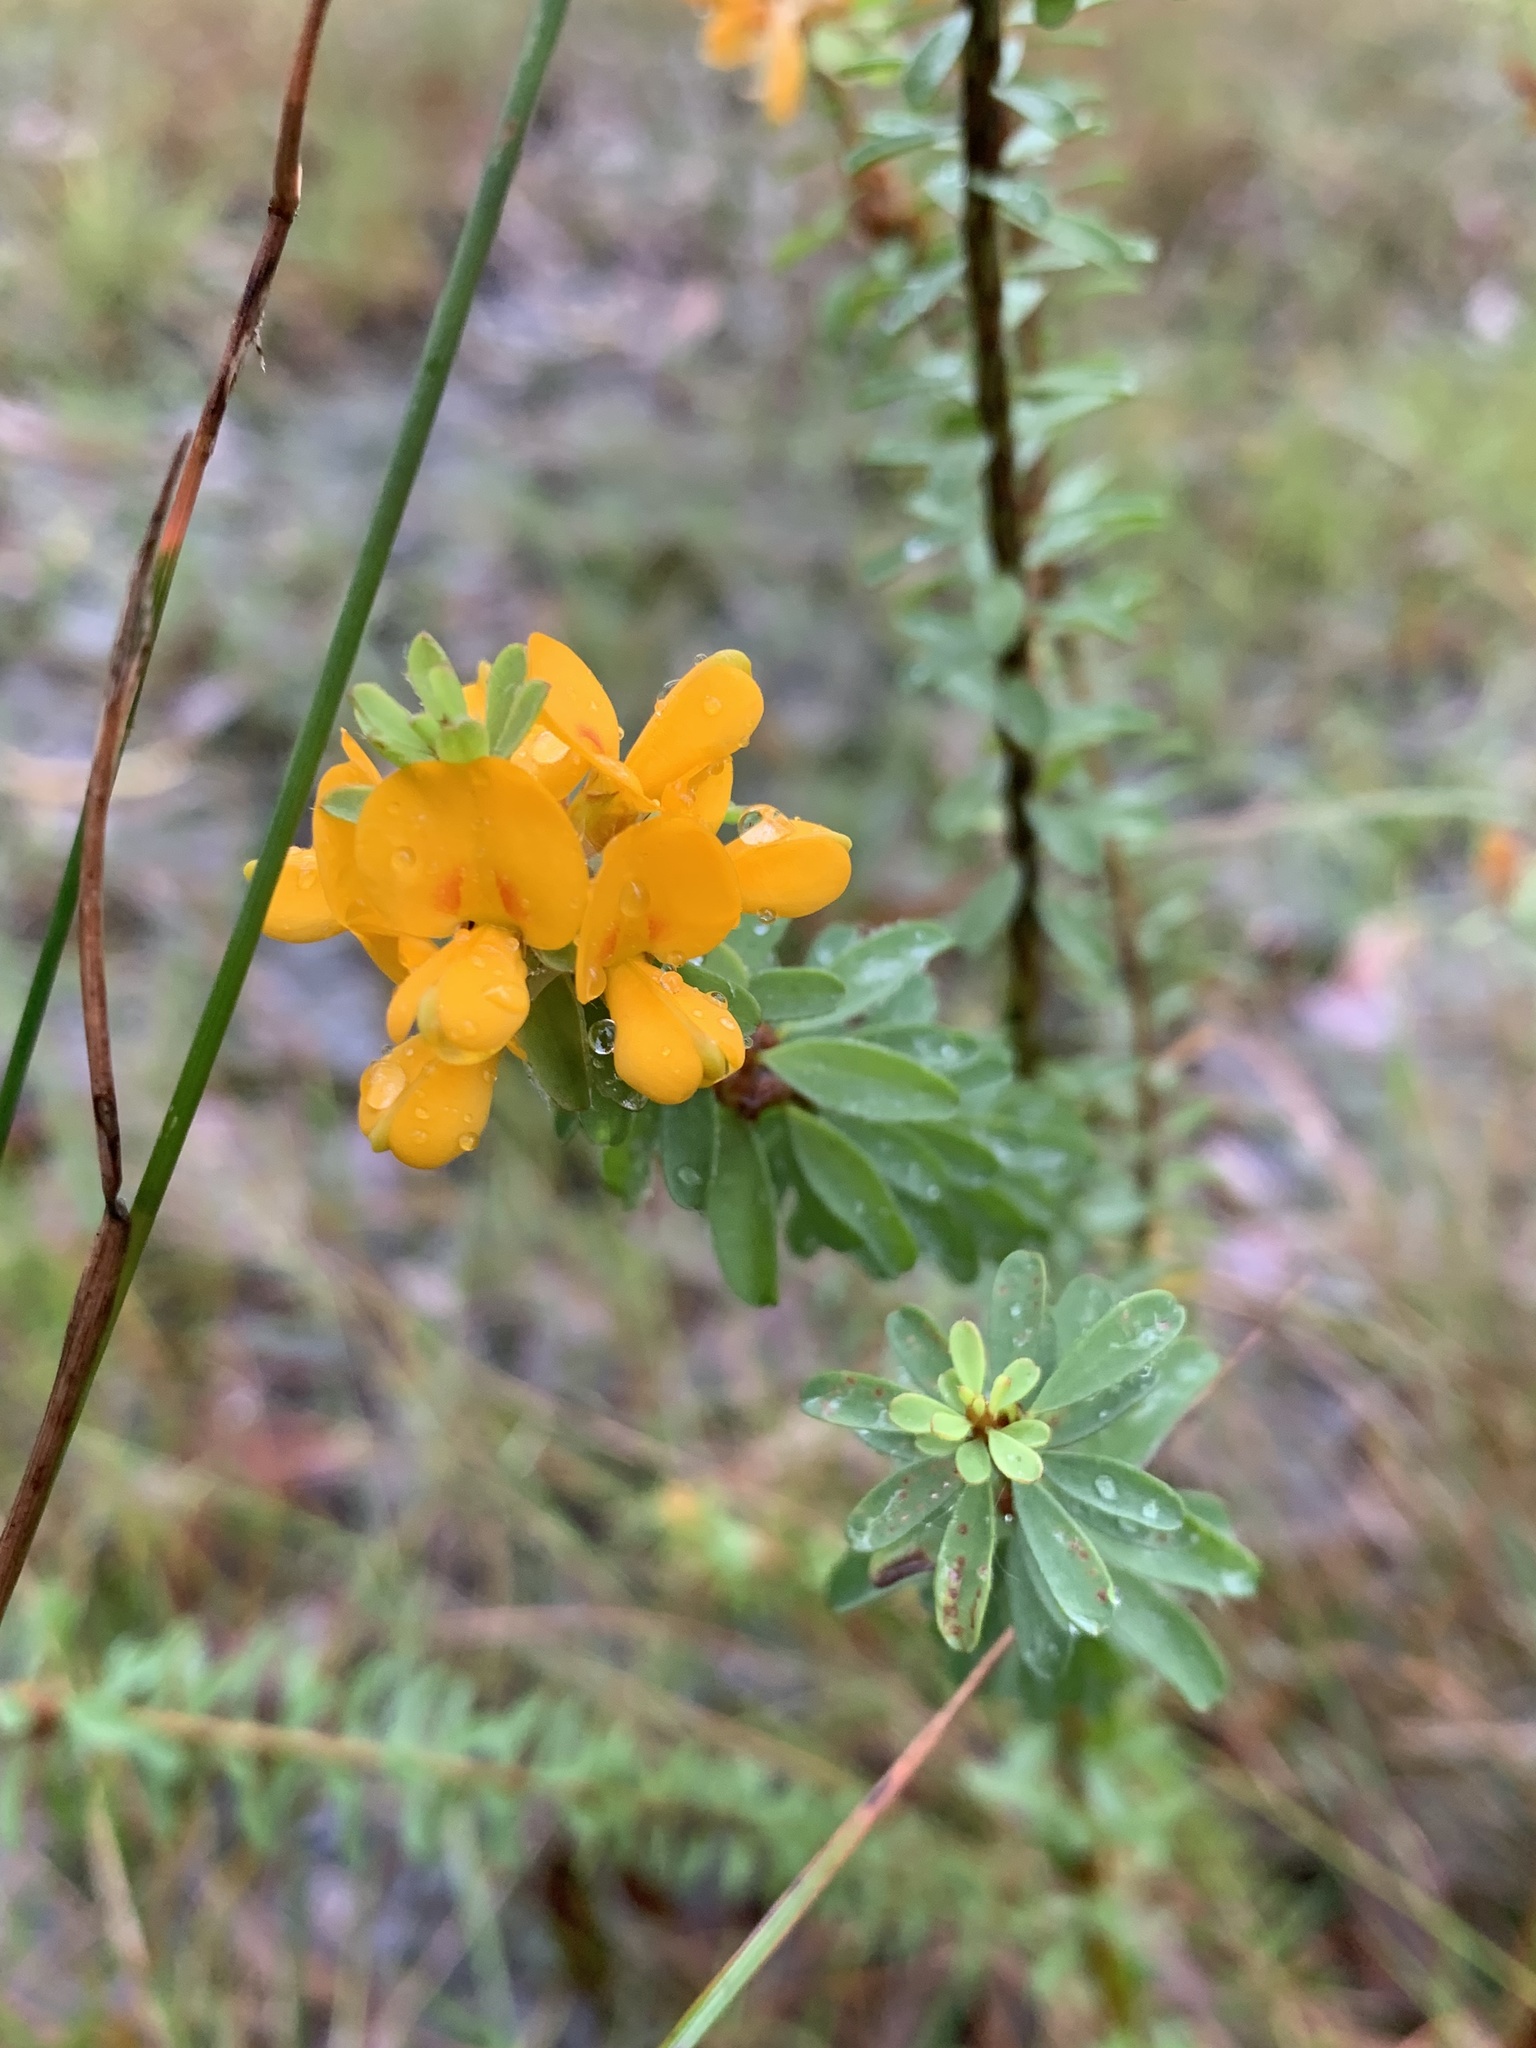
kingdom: Plantae
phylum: Tracheophyta
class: Magnoliopsida
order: Fabales
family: Fabaceae
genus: Pultenaea
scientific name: Pultenaea tuberculata
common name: Wreath bush-pea
